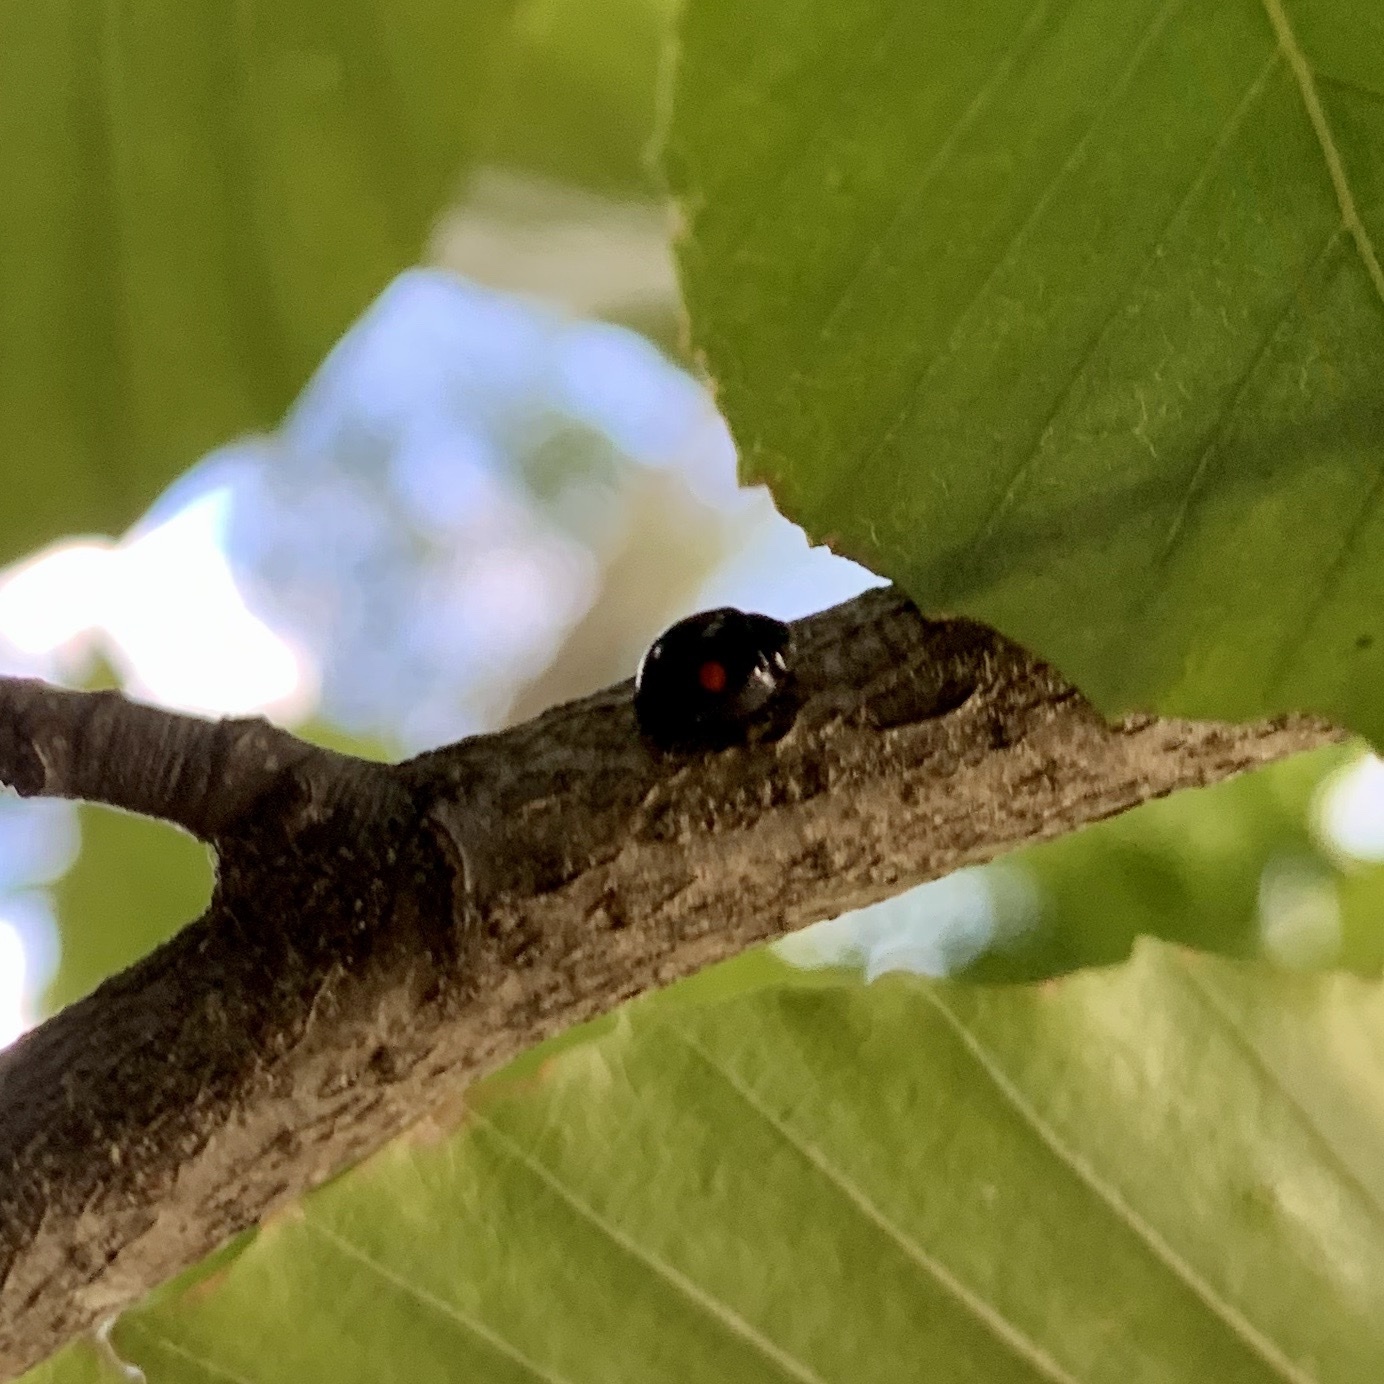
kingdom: Animalia
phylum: Arthropoda
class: Insecta
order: Coleoptera
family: Coccinellidae
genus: Chilocorus
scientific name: Chilocorus stigma
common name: Twicestabbed lady beetle
